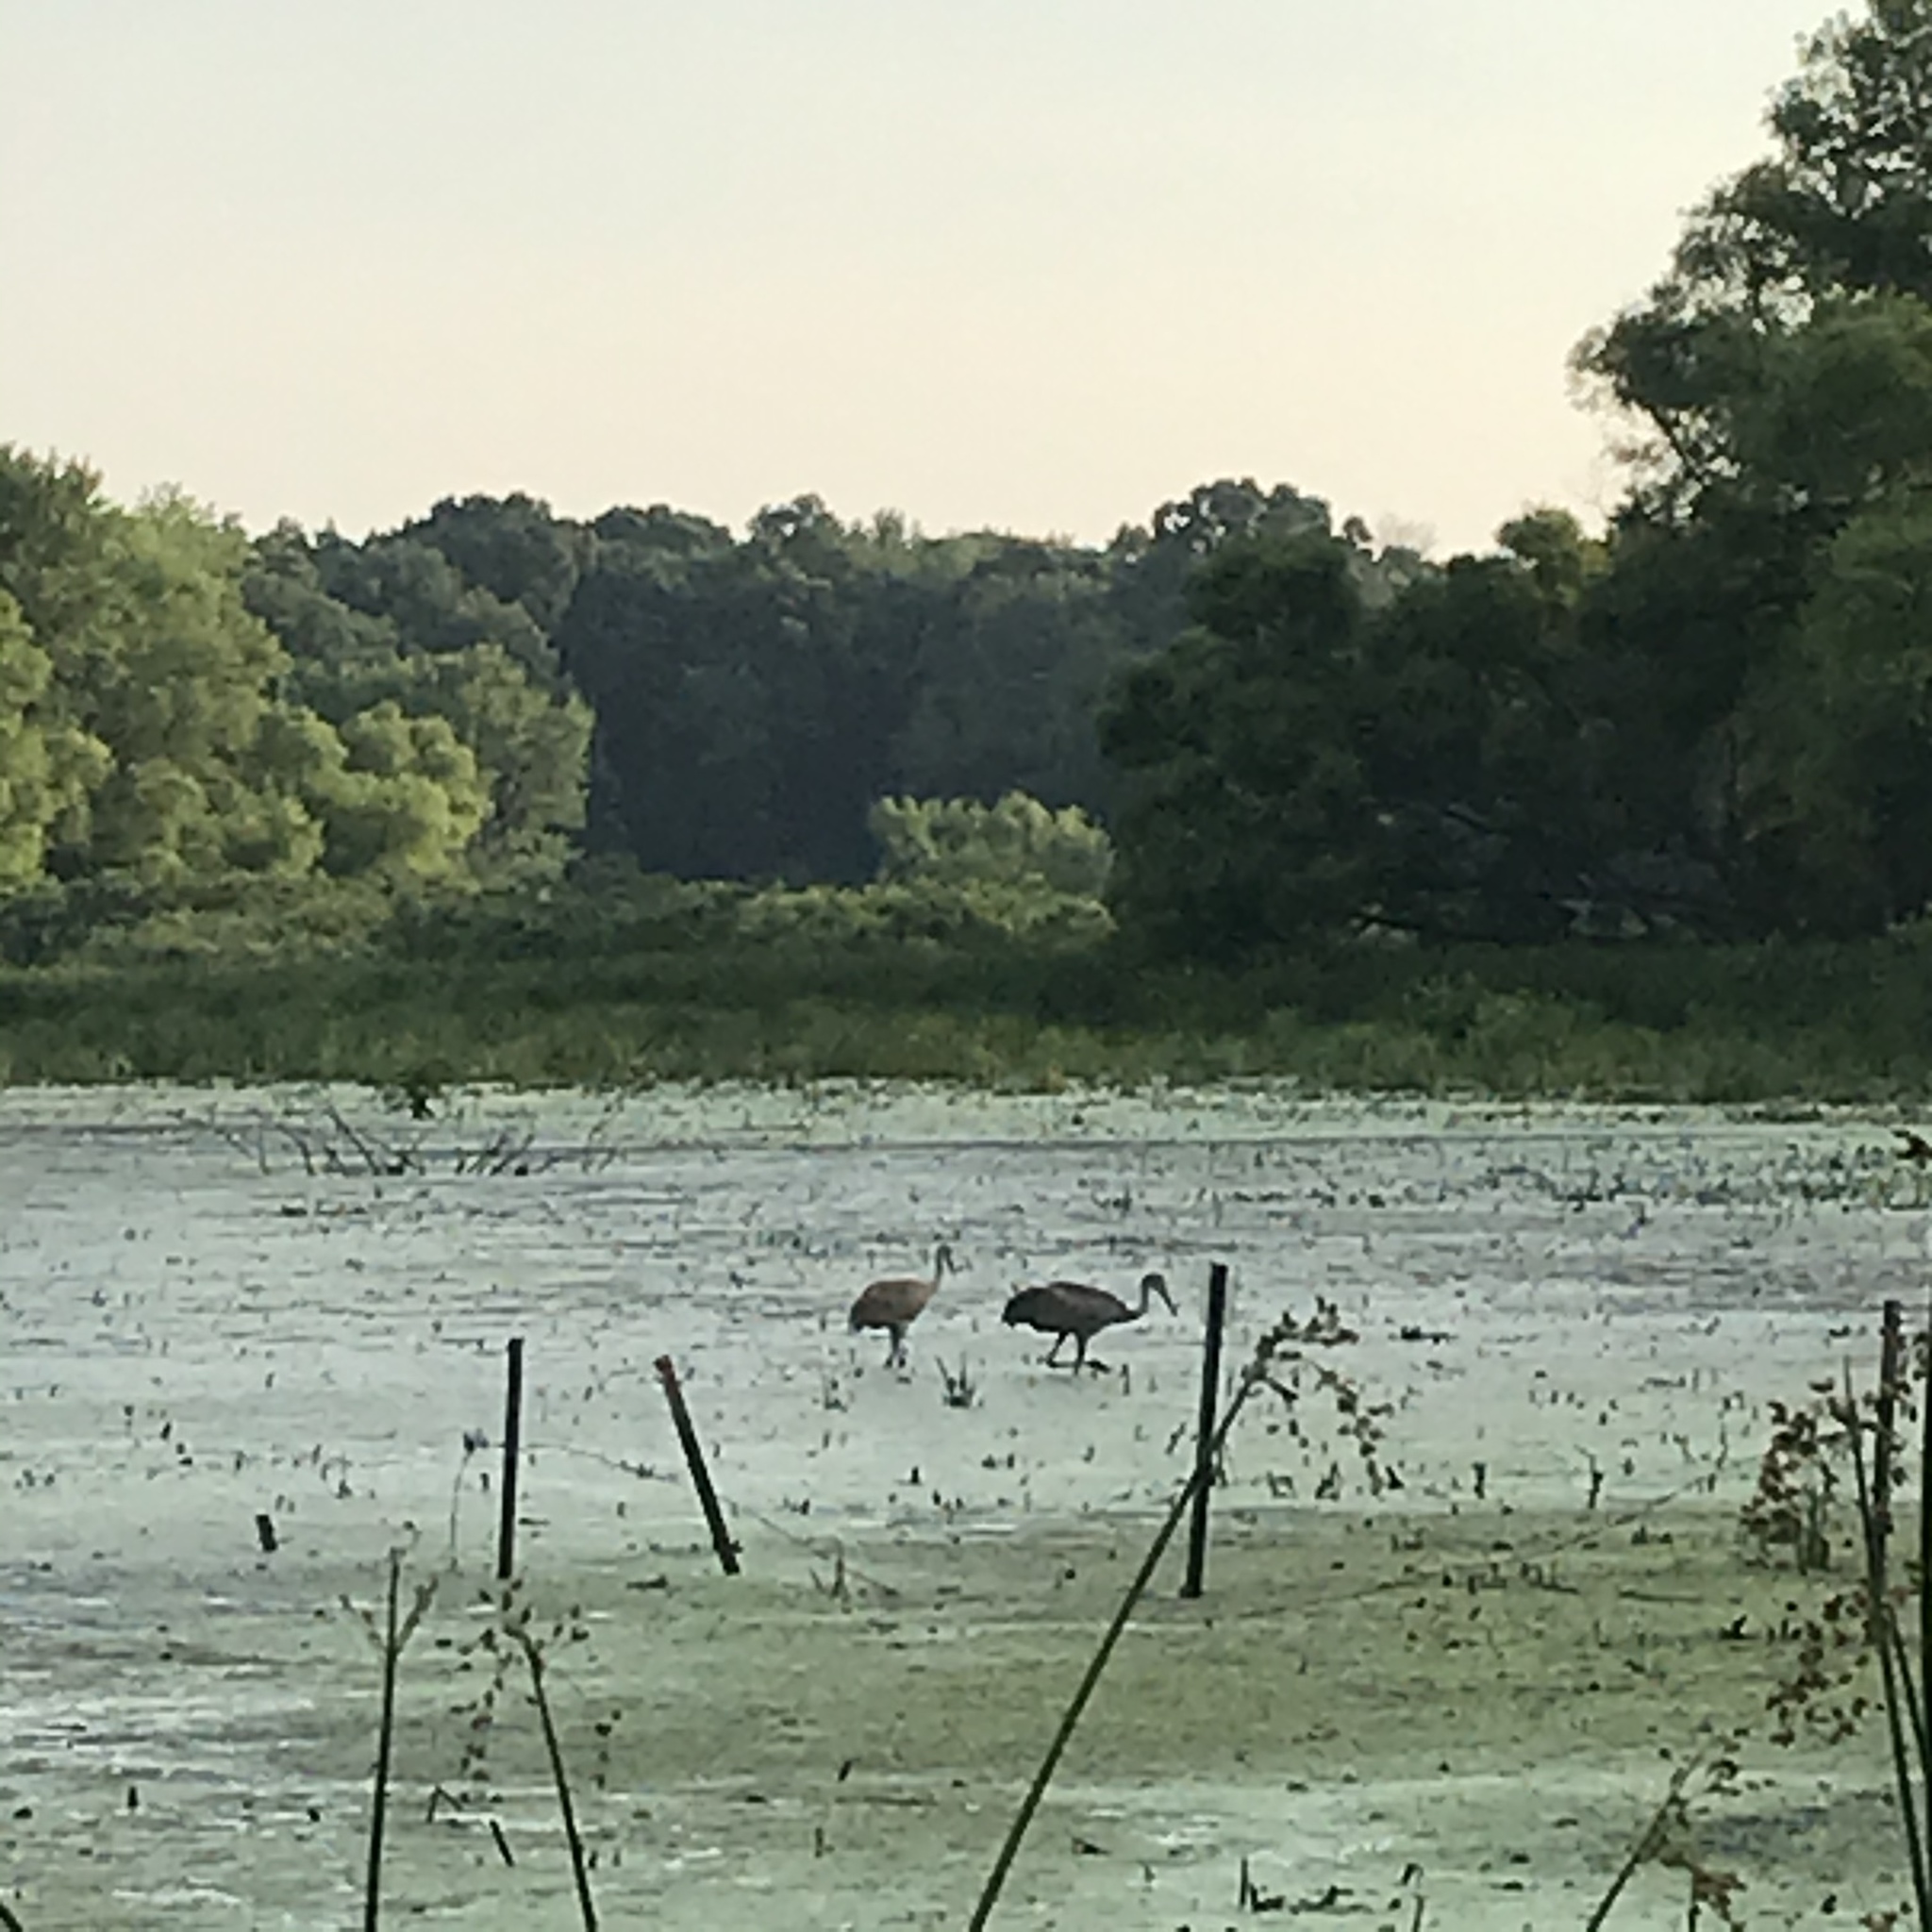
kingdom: Animalia
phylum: Chordata
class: Aves
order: Gruiformes
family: Gruidae
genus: Grus
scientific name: Grus canadensis
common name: Sandhill crane
